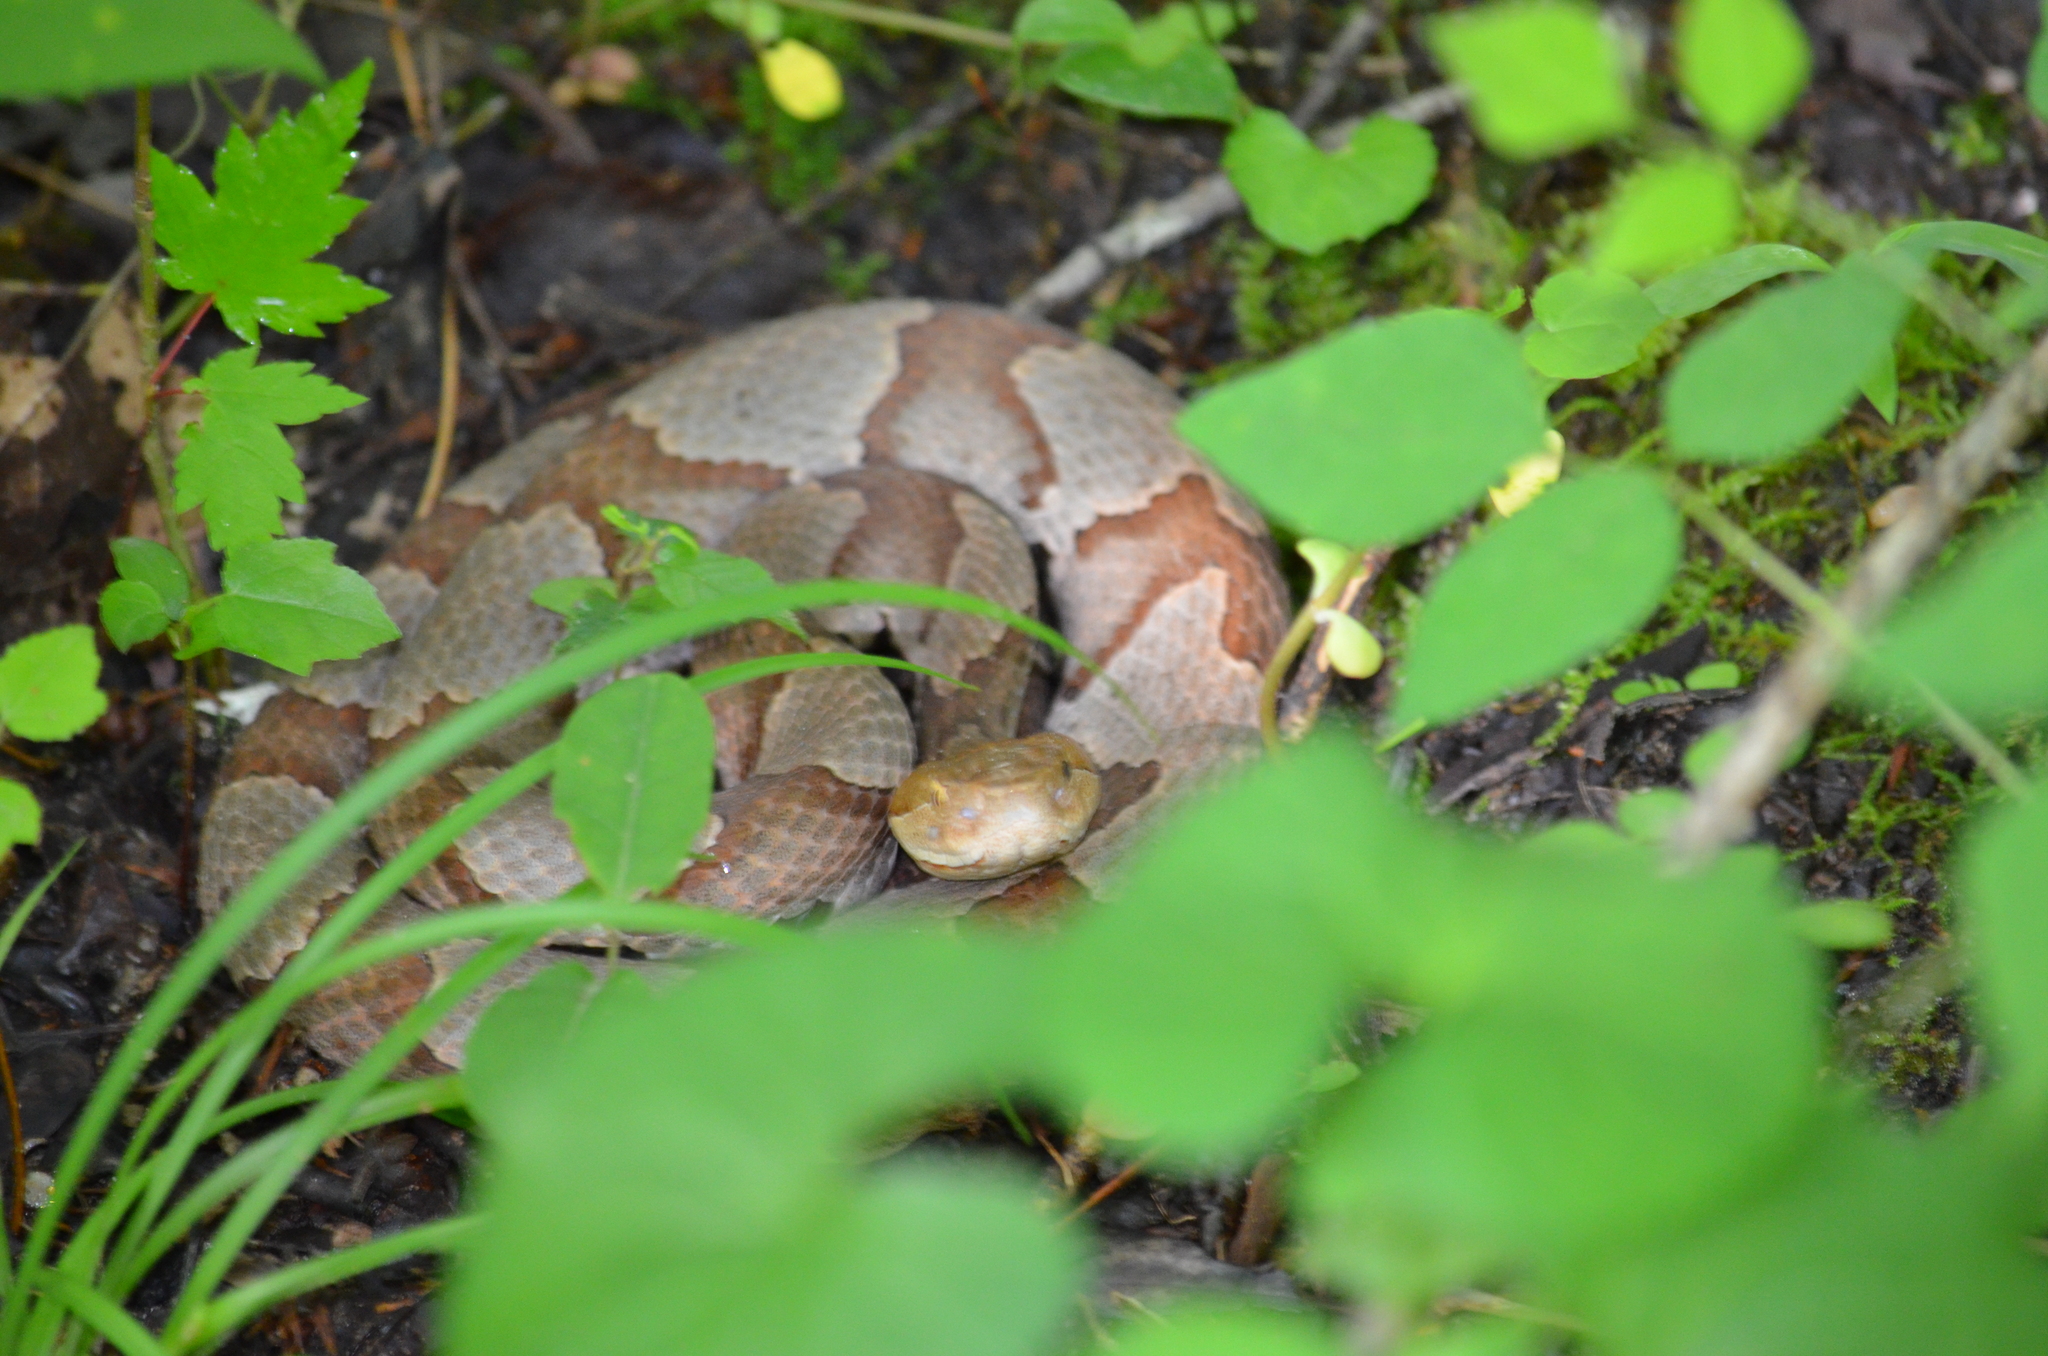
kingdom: Animalia
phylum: Chordata
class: Squamata
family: Viperidae
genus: Agkistrodon
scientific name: Agkistrodon contortrix
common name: Northern copperhead
